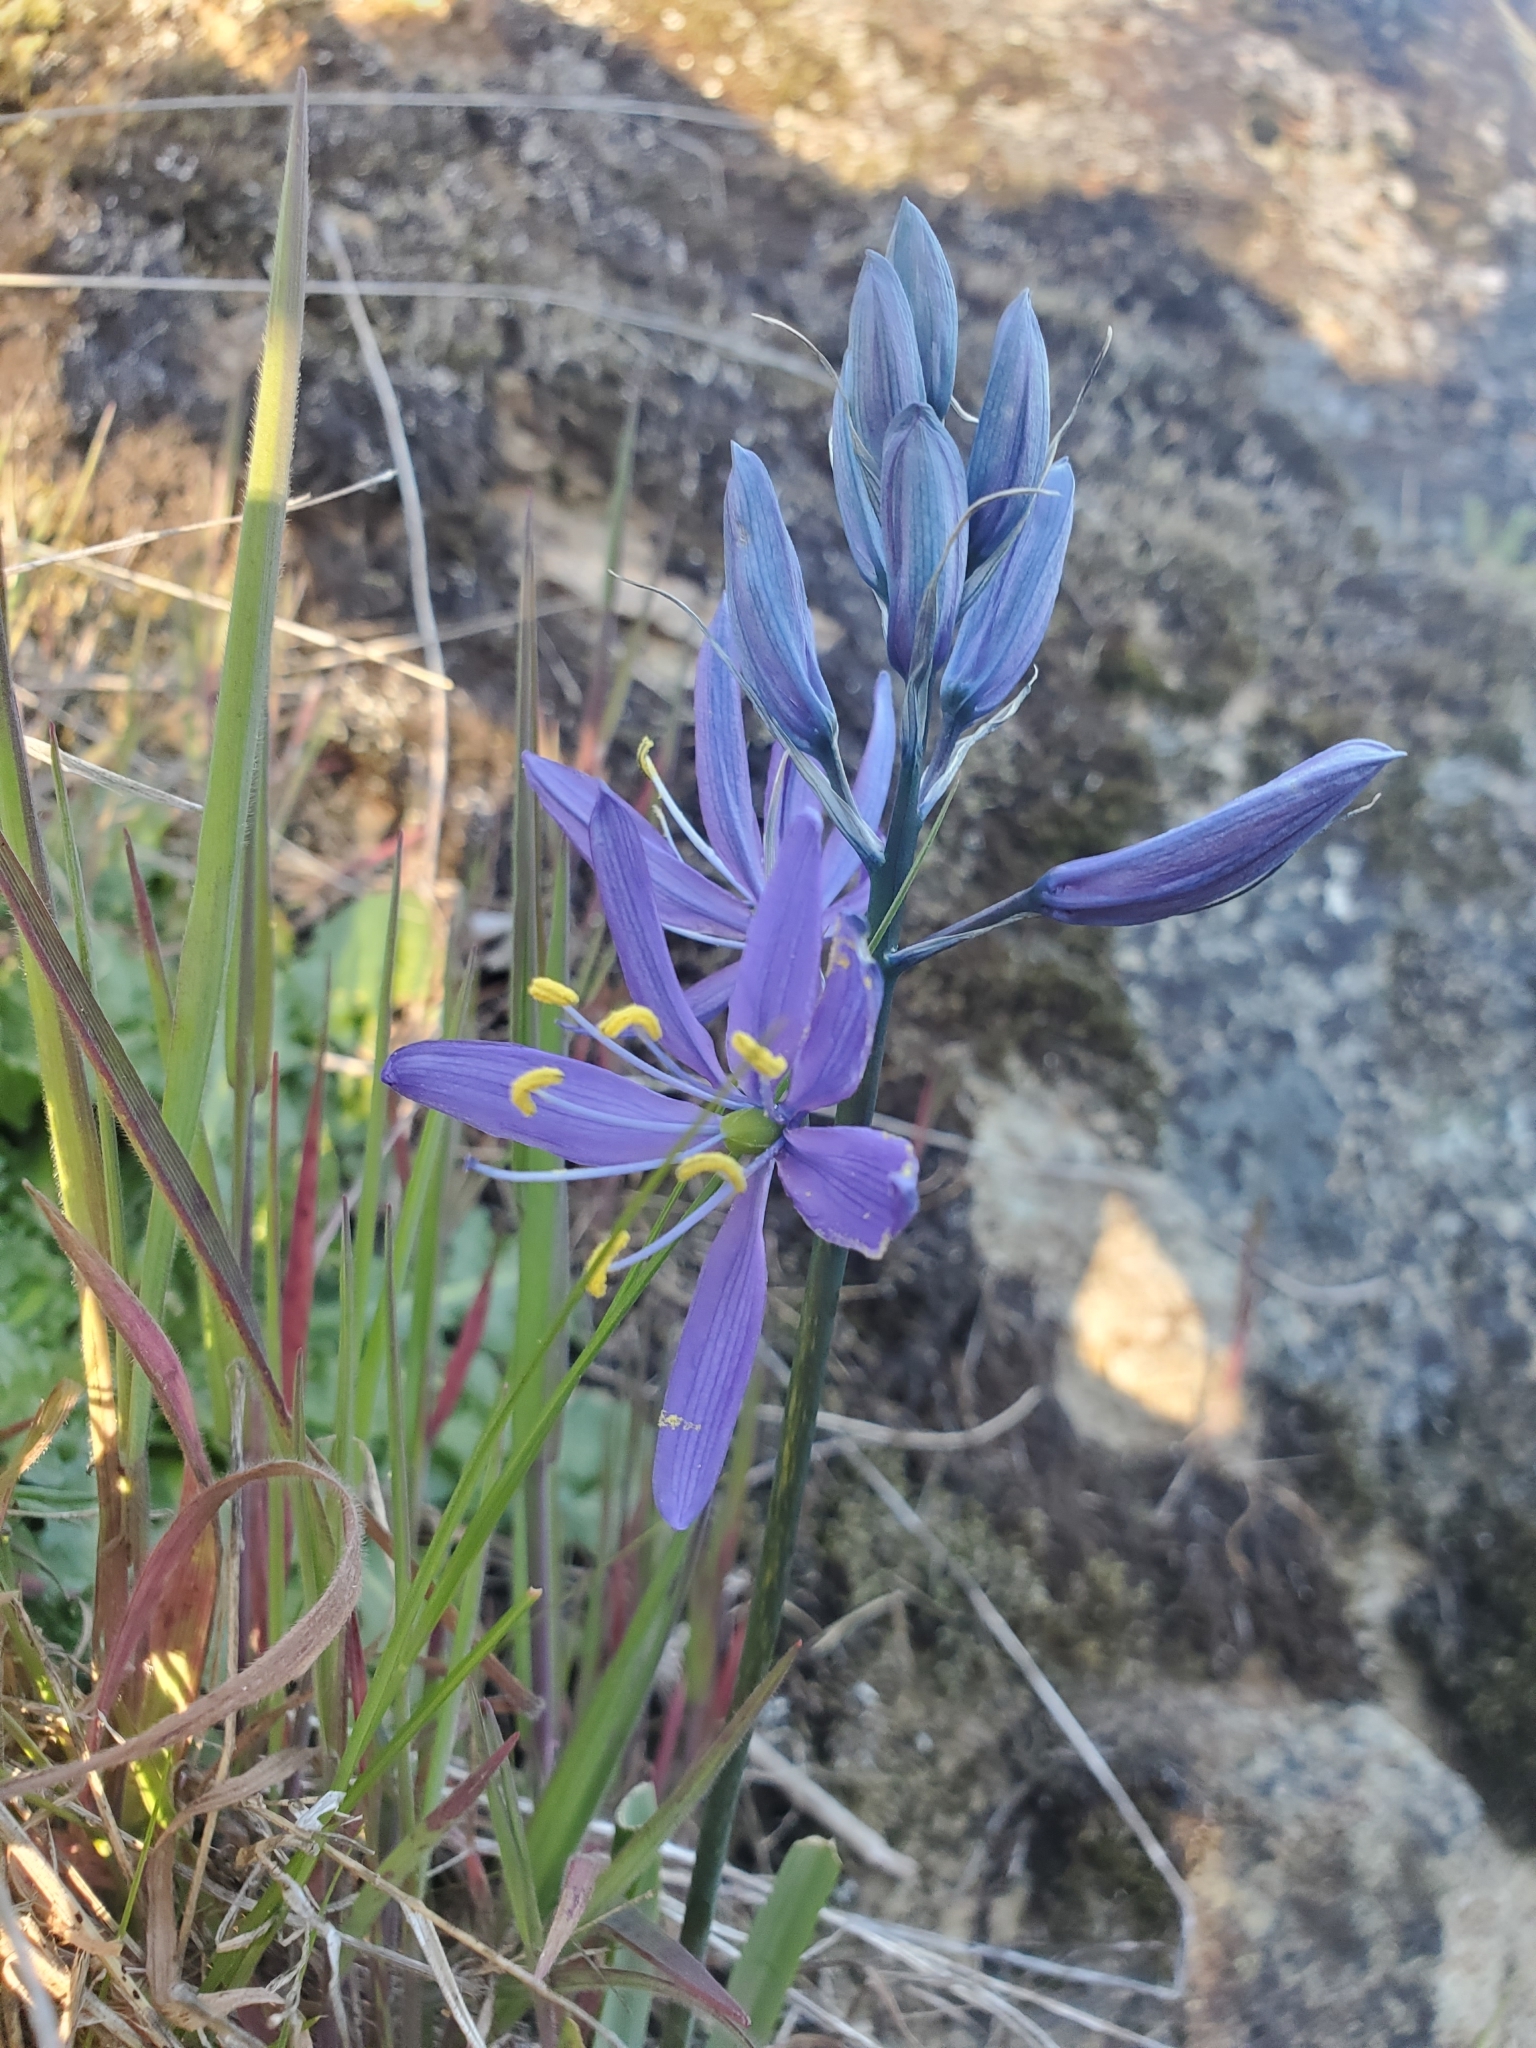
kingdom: Plantae
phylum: Tracheophyta
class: Liliopsida
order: Asparagales
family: Asparagaceae
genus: Camassia
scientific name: Camassia quamash
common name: Common camas
